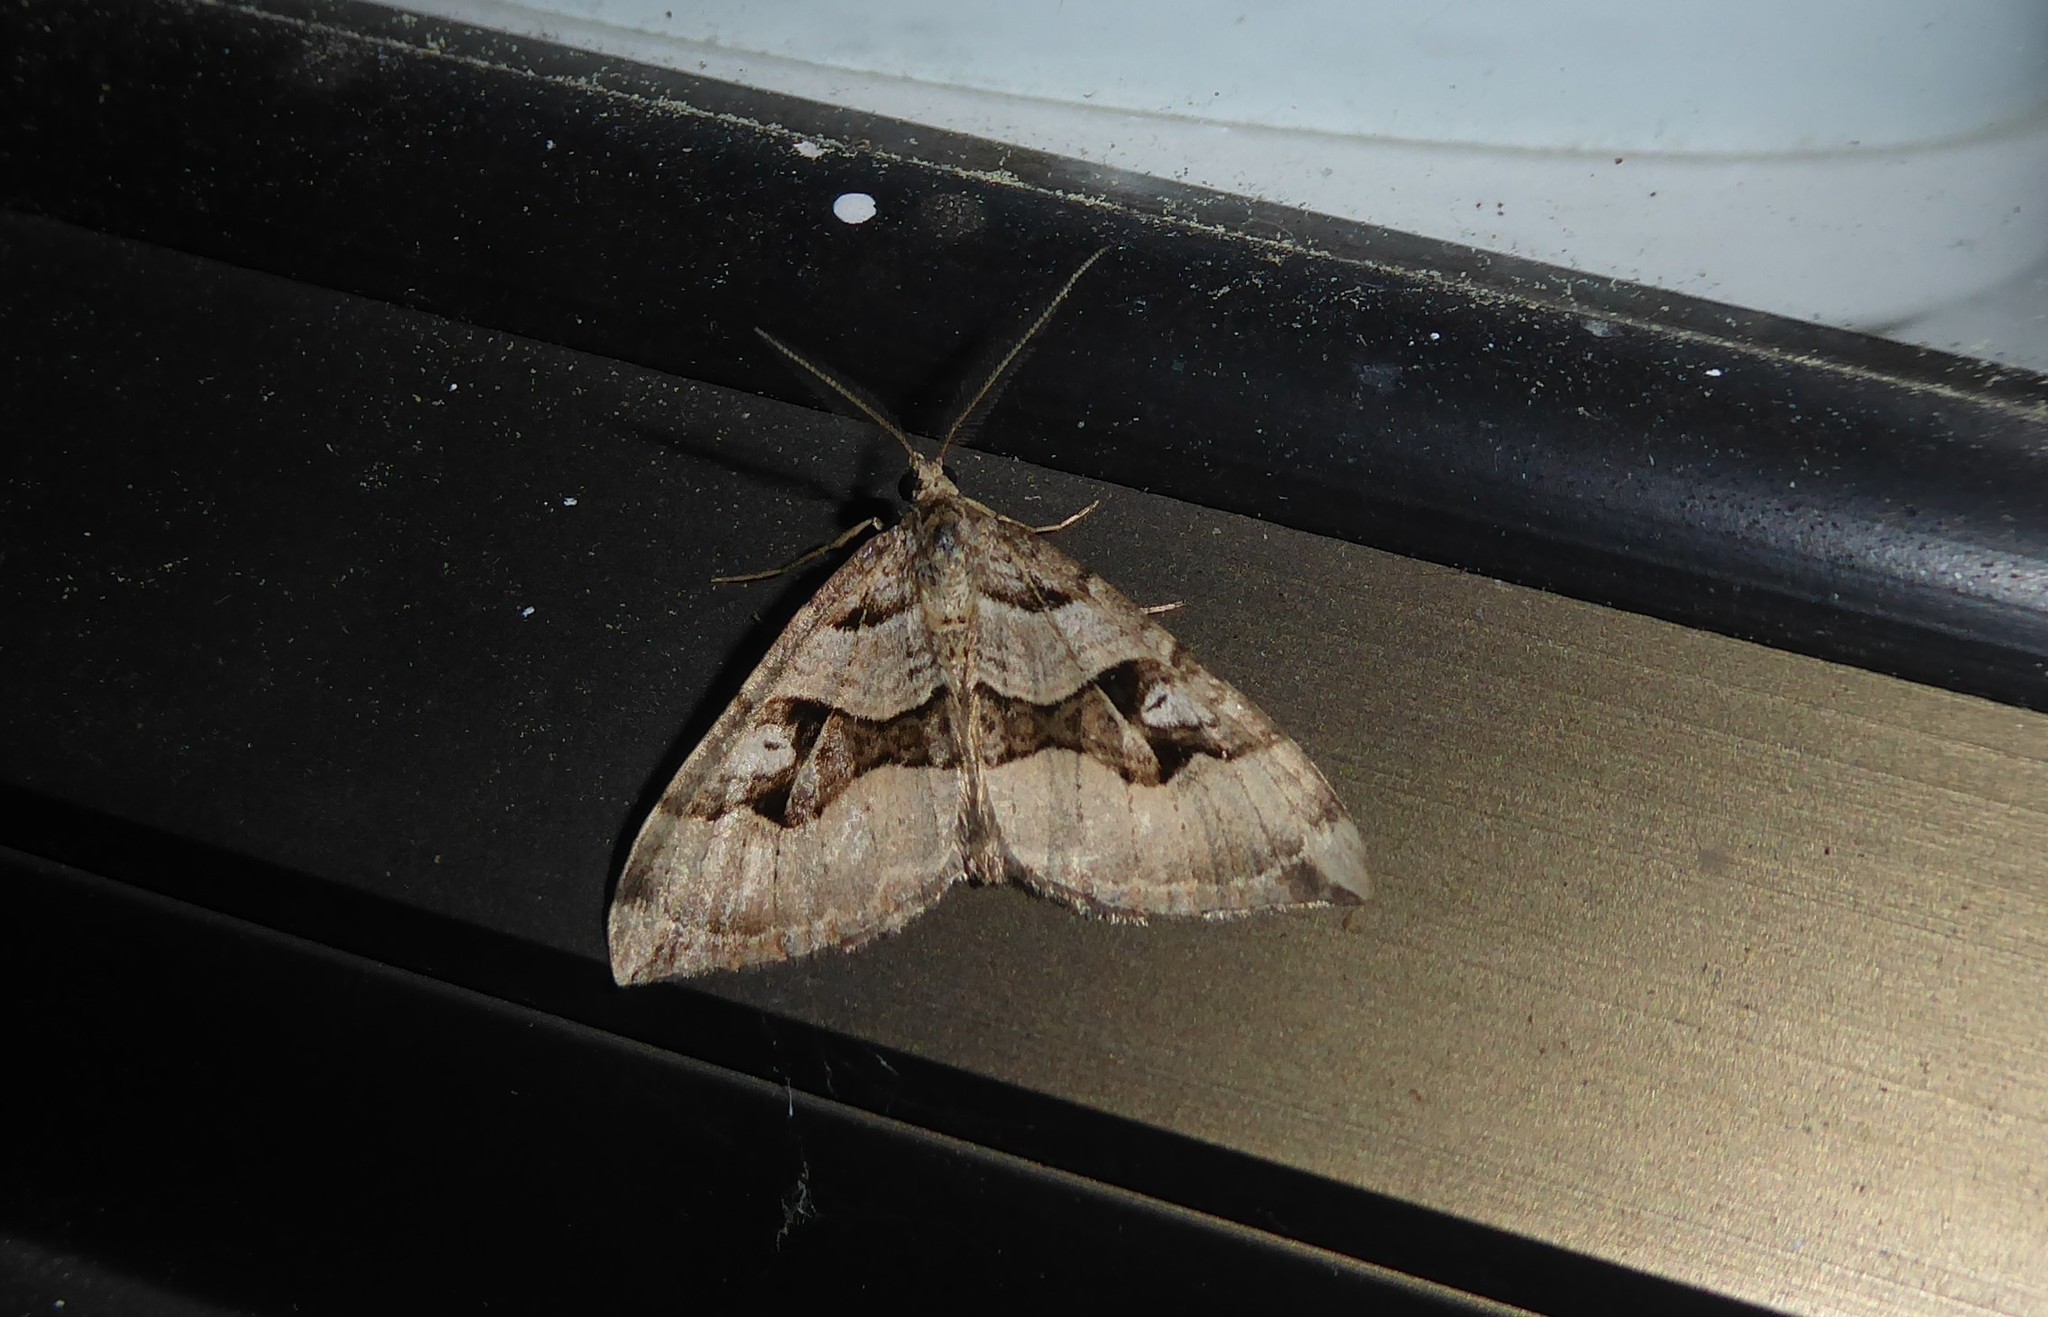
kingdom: Animalia
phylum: Arthropoda
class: Insecta
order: Lepidoptera
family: Geometridae
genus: Xanthorhoe
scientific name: Xanthorhoe semifissata
